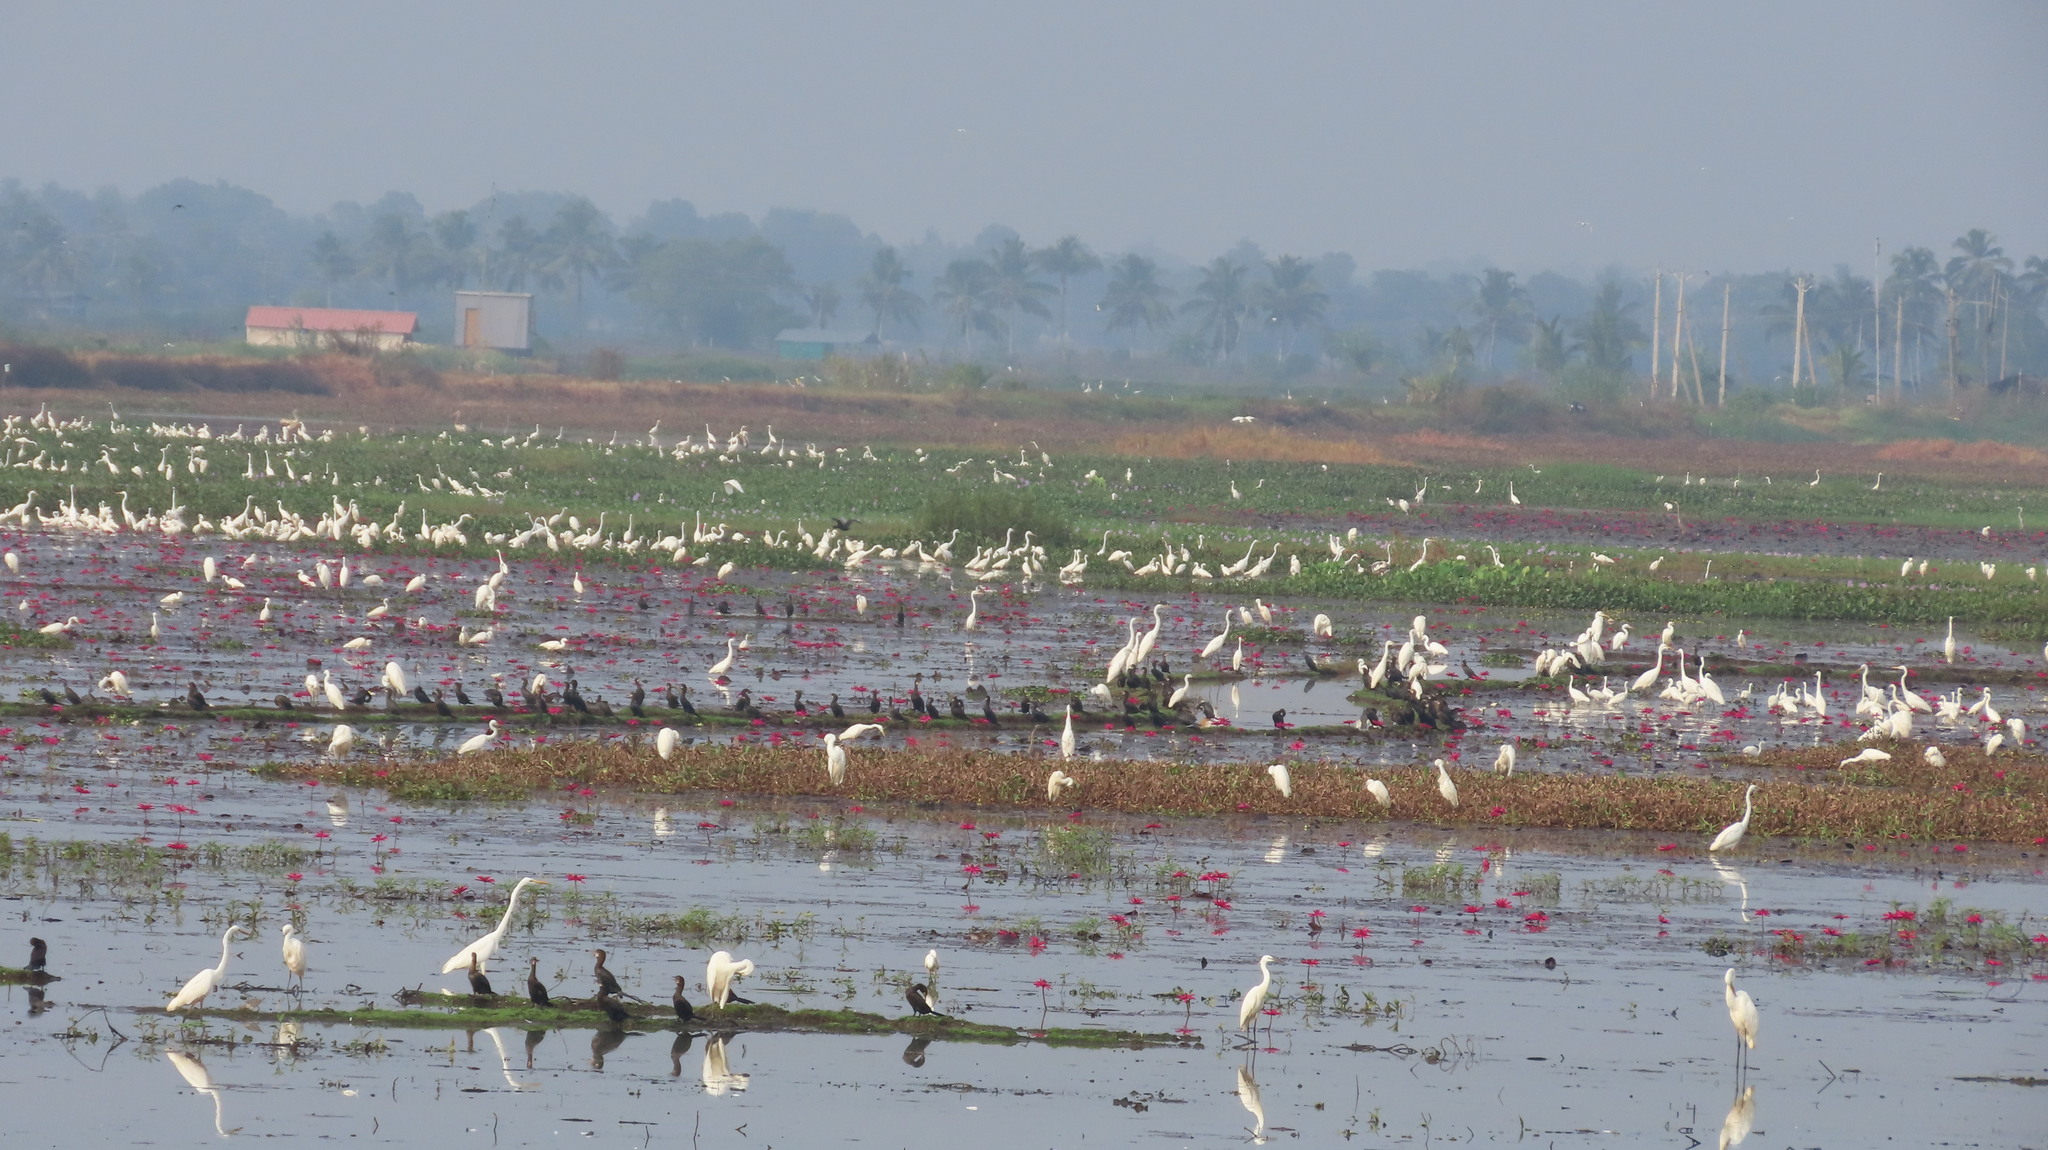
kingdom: Animalia
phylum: Chordata
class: Aves
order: Pelecaniformes
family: Ardeidae
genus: Egretta
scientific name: Egretta intermedia
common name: Intermediate egret
